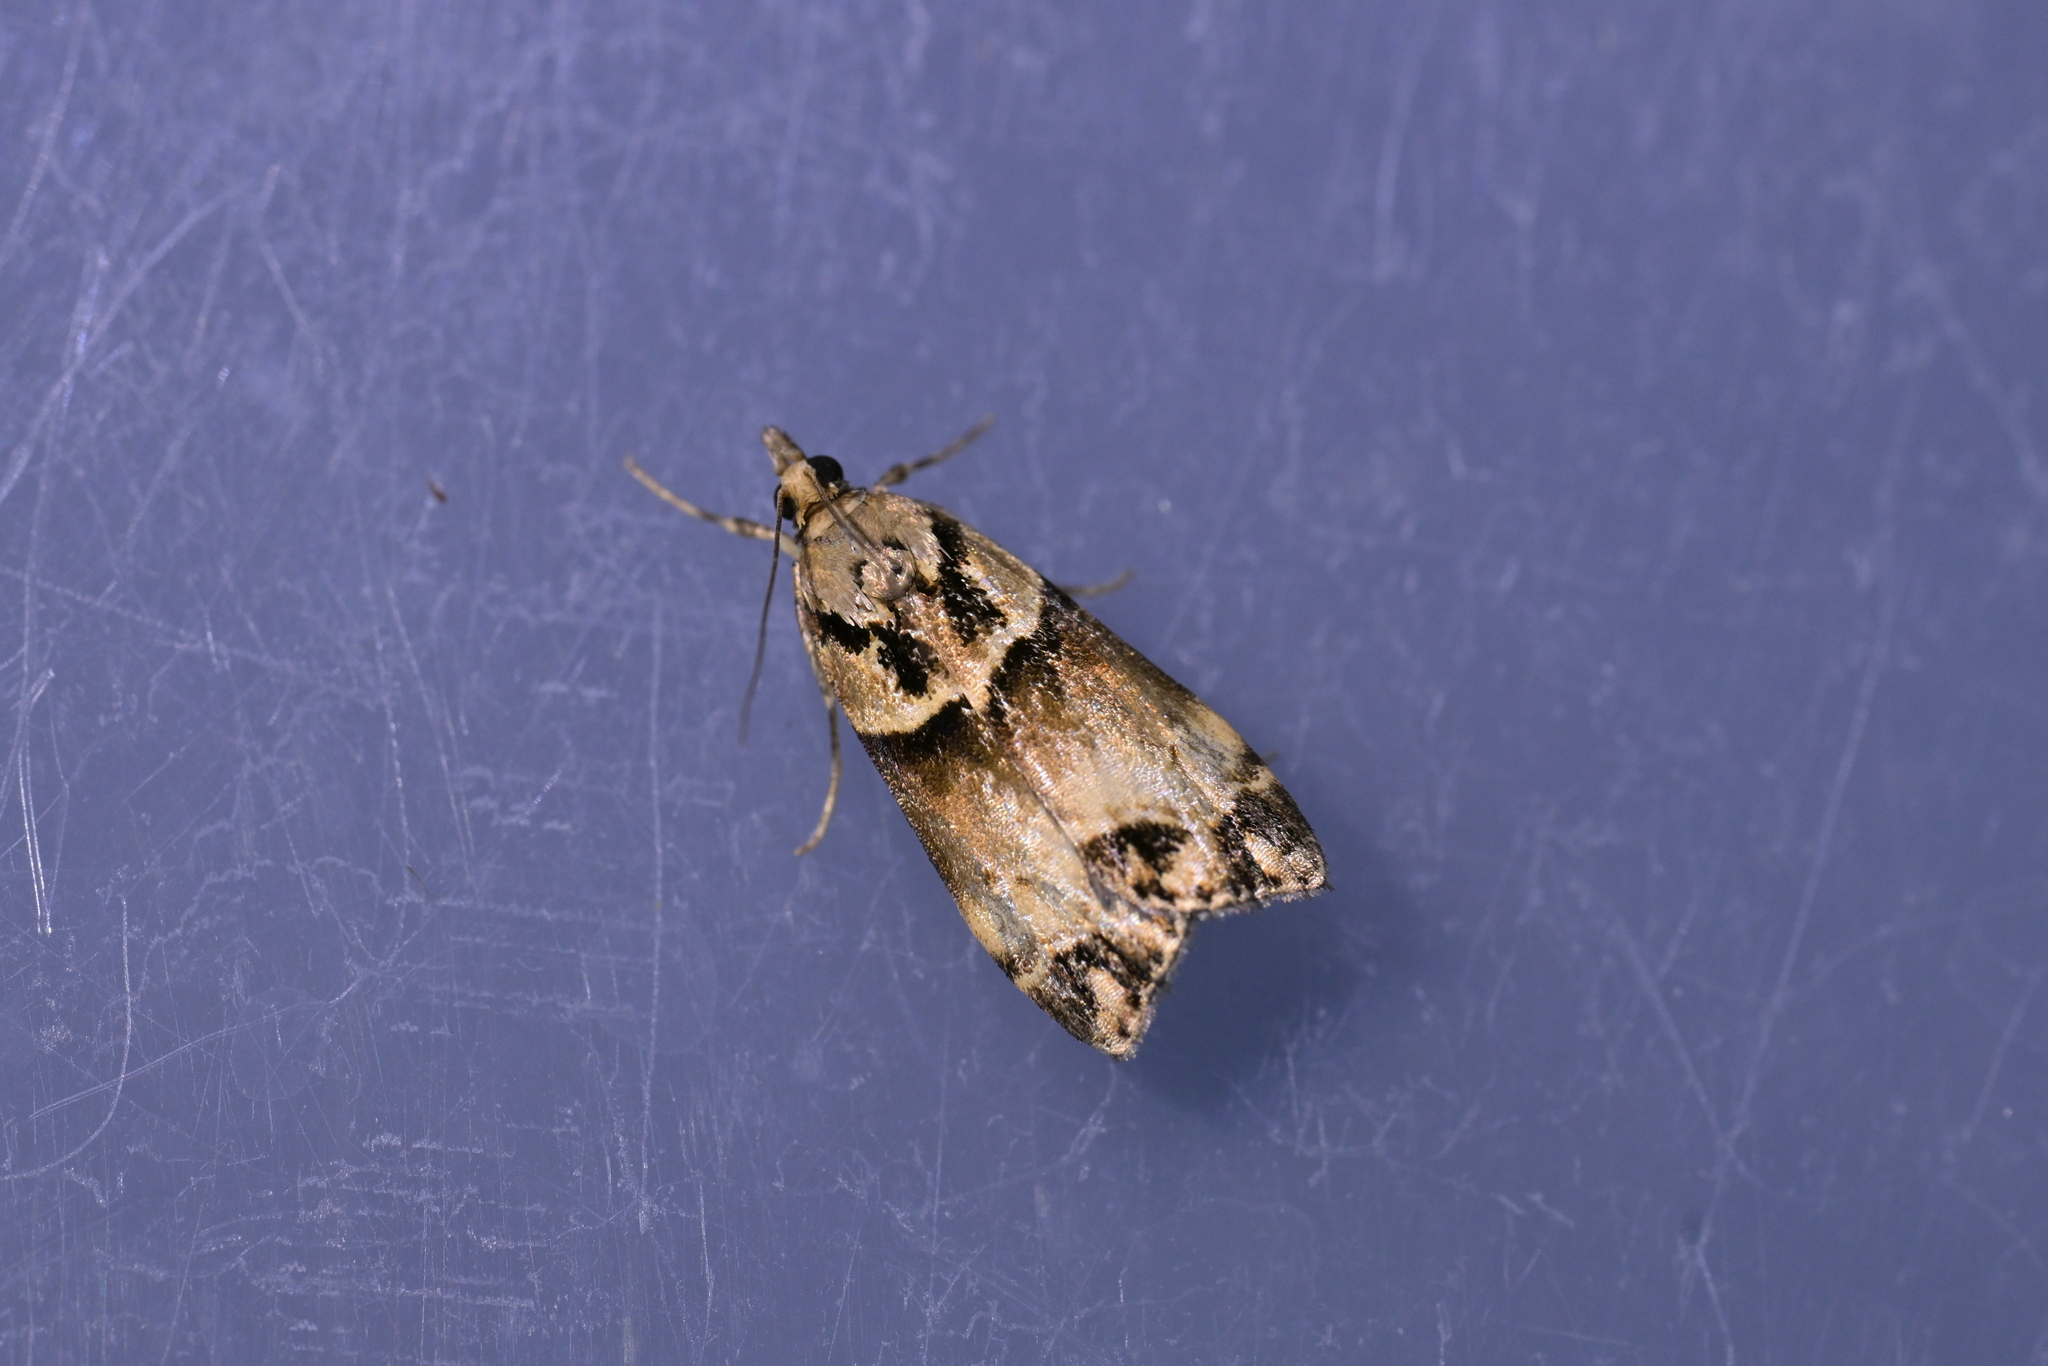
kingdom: Animalia
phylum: Arthropoda
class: Insecta
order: Lepidoptera
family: Crambidae
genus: Eudonia
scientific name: Eudonia periphanes
